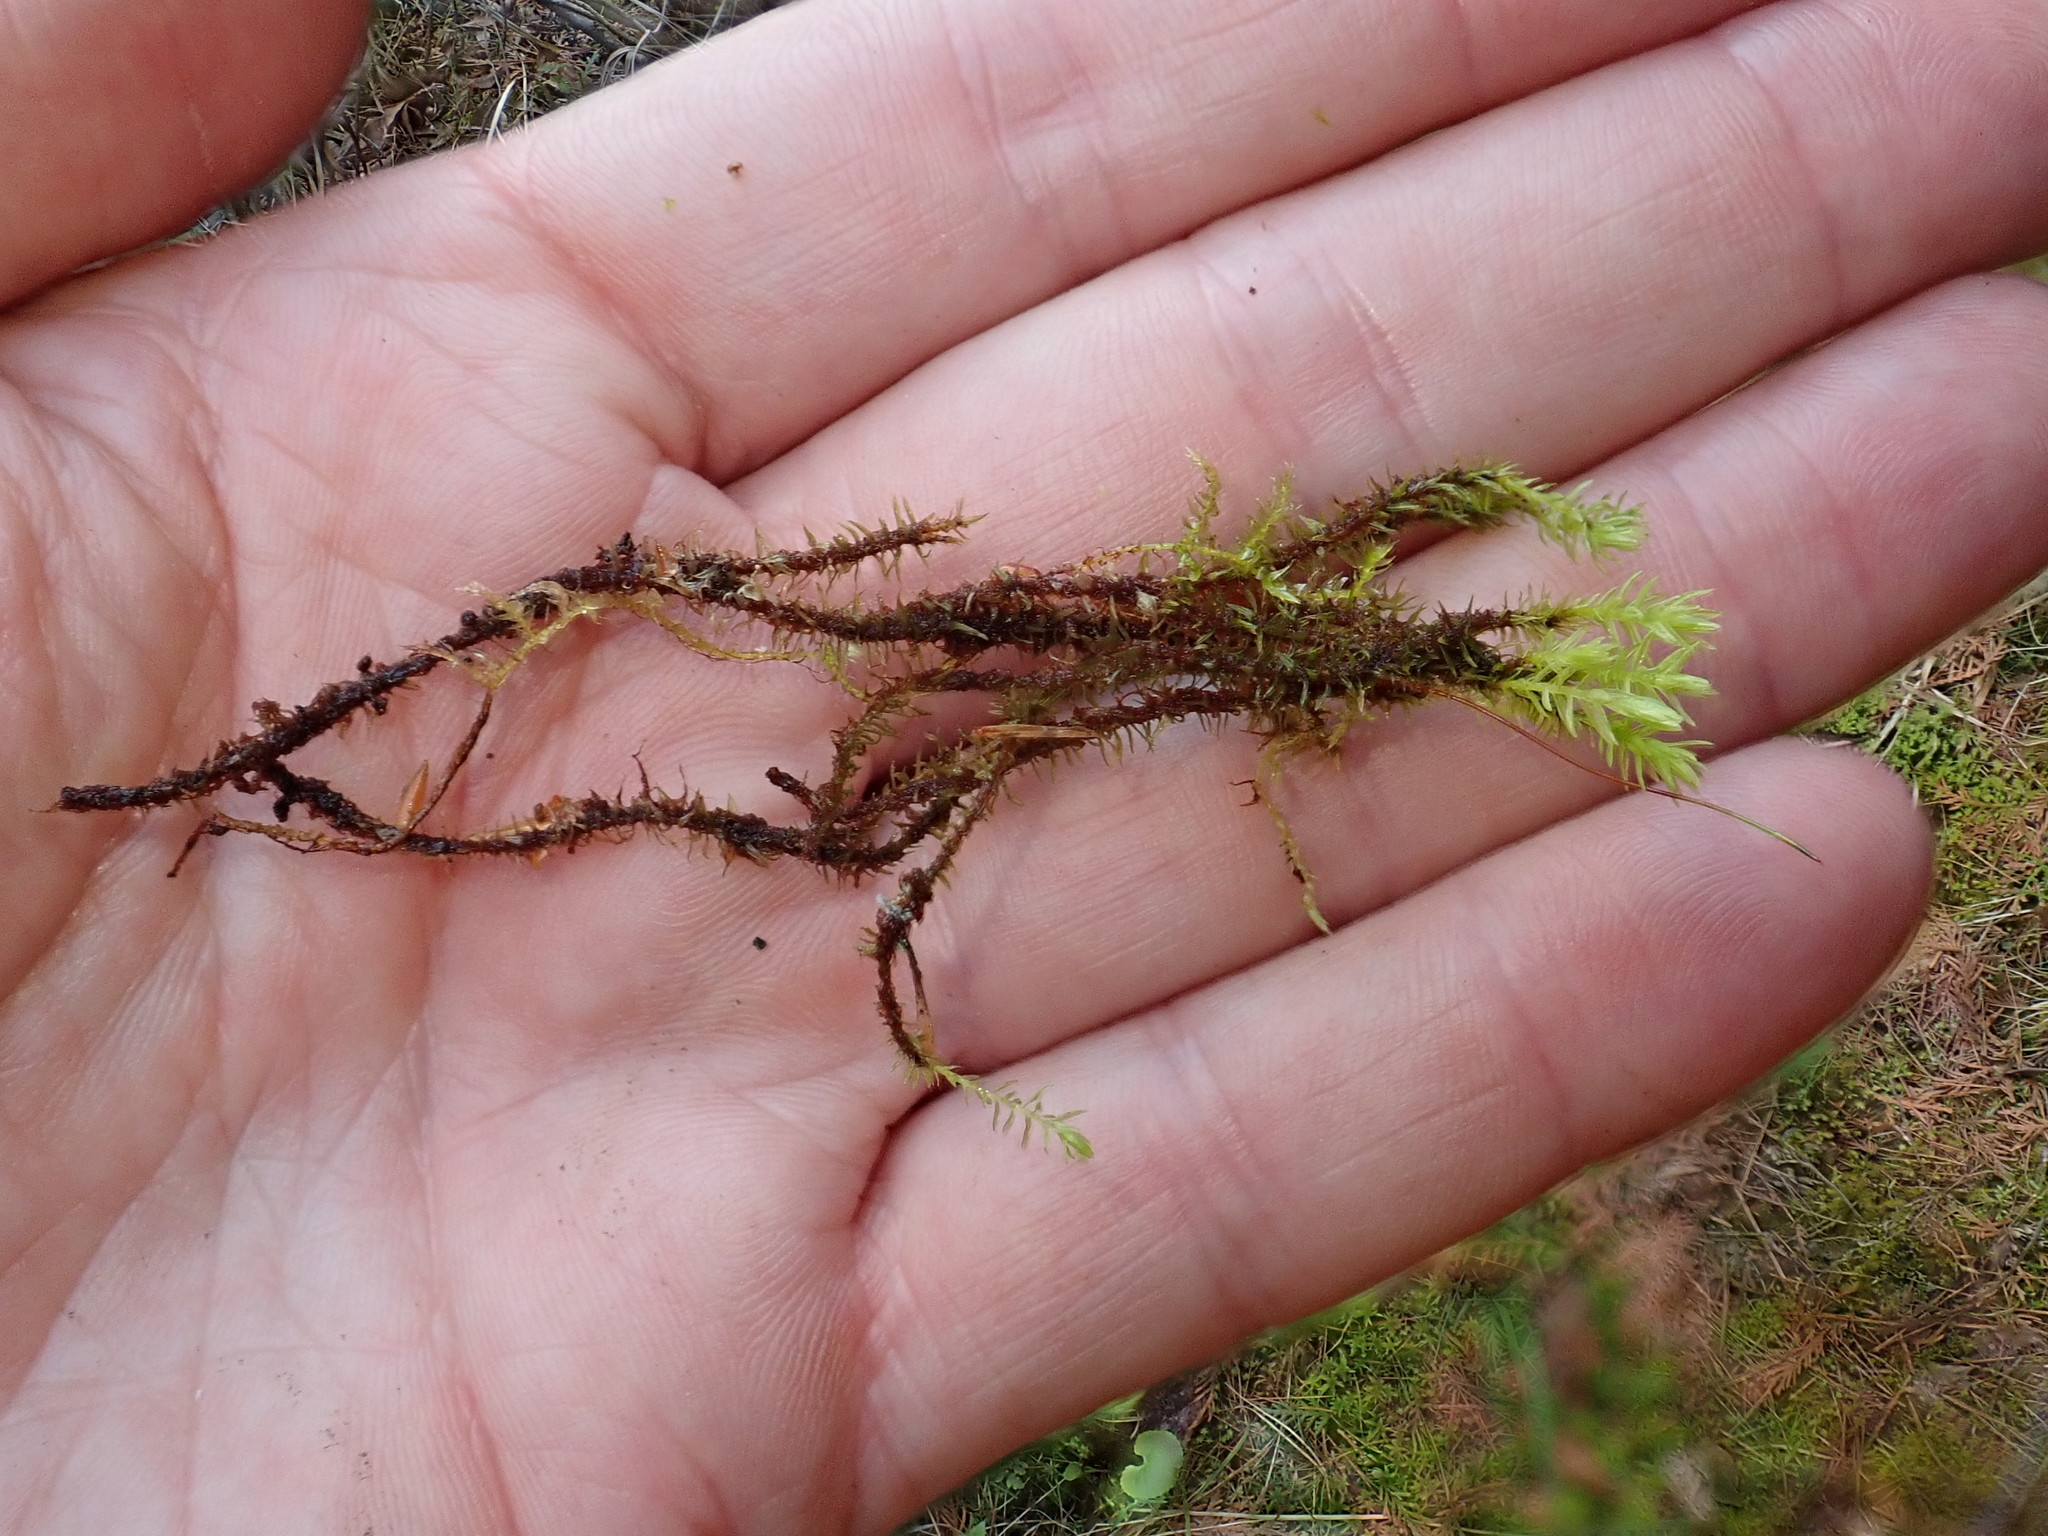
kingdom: Plantae
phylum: Bryophyta
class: Bryopsida
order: Aulacomniales
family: Aulacomniaceae
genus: Aulacomnium
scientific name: Aulacomnium palustre
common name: Bog groove-moss
